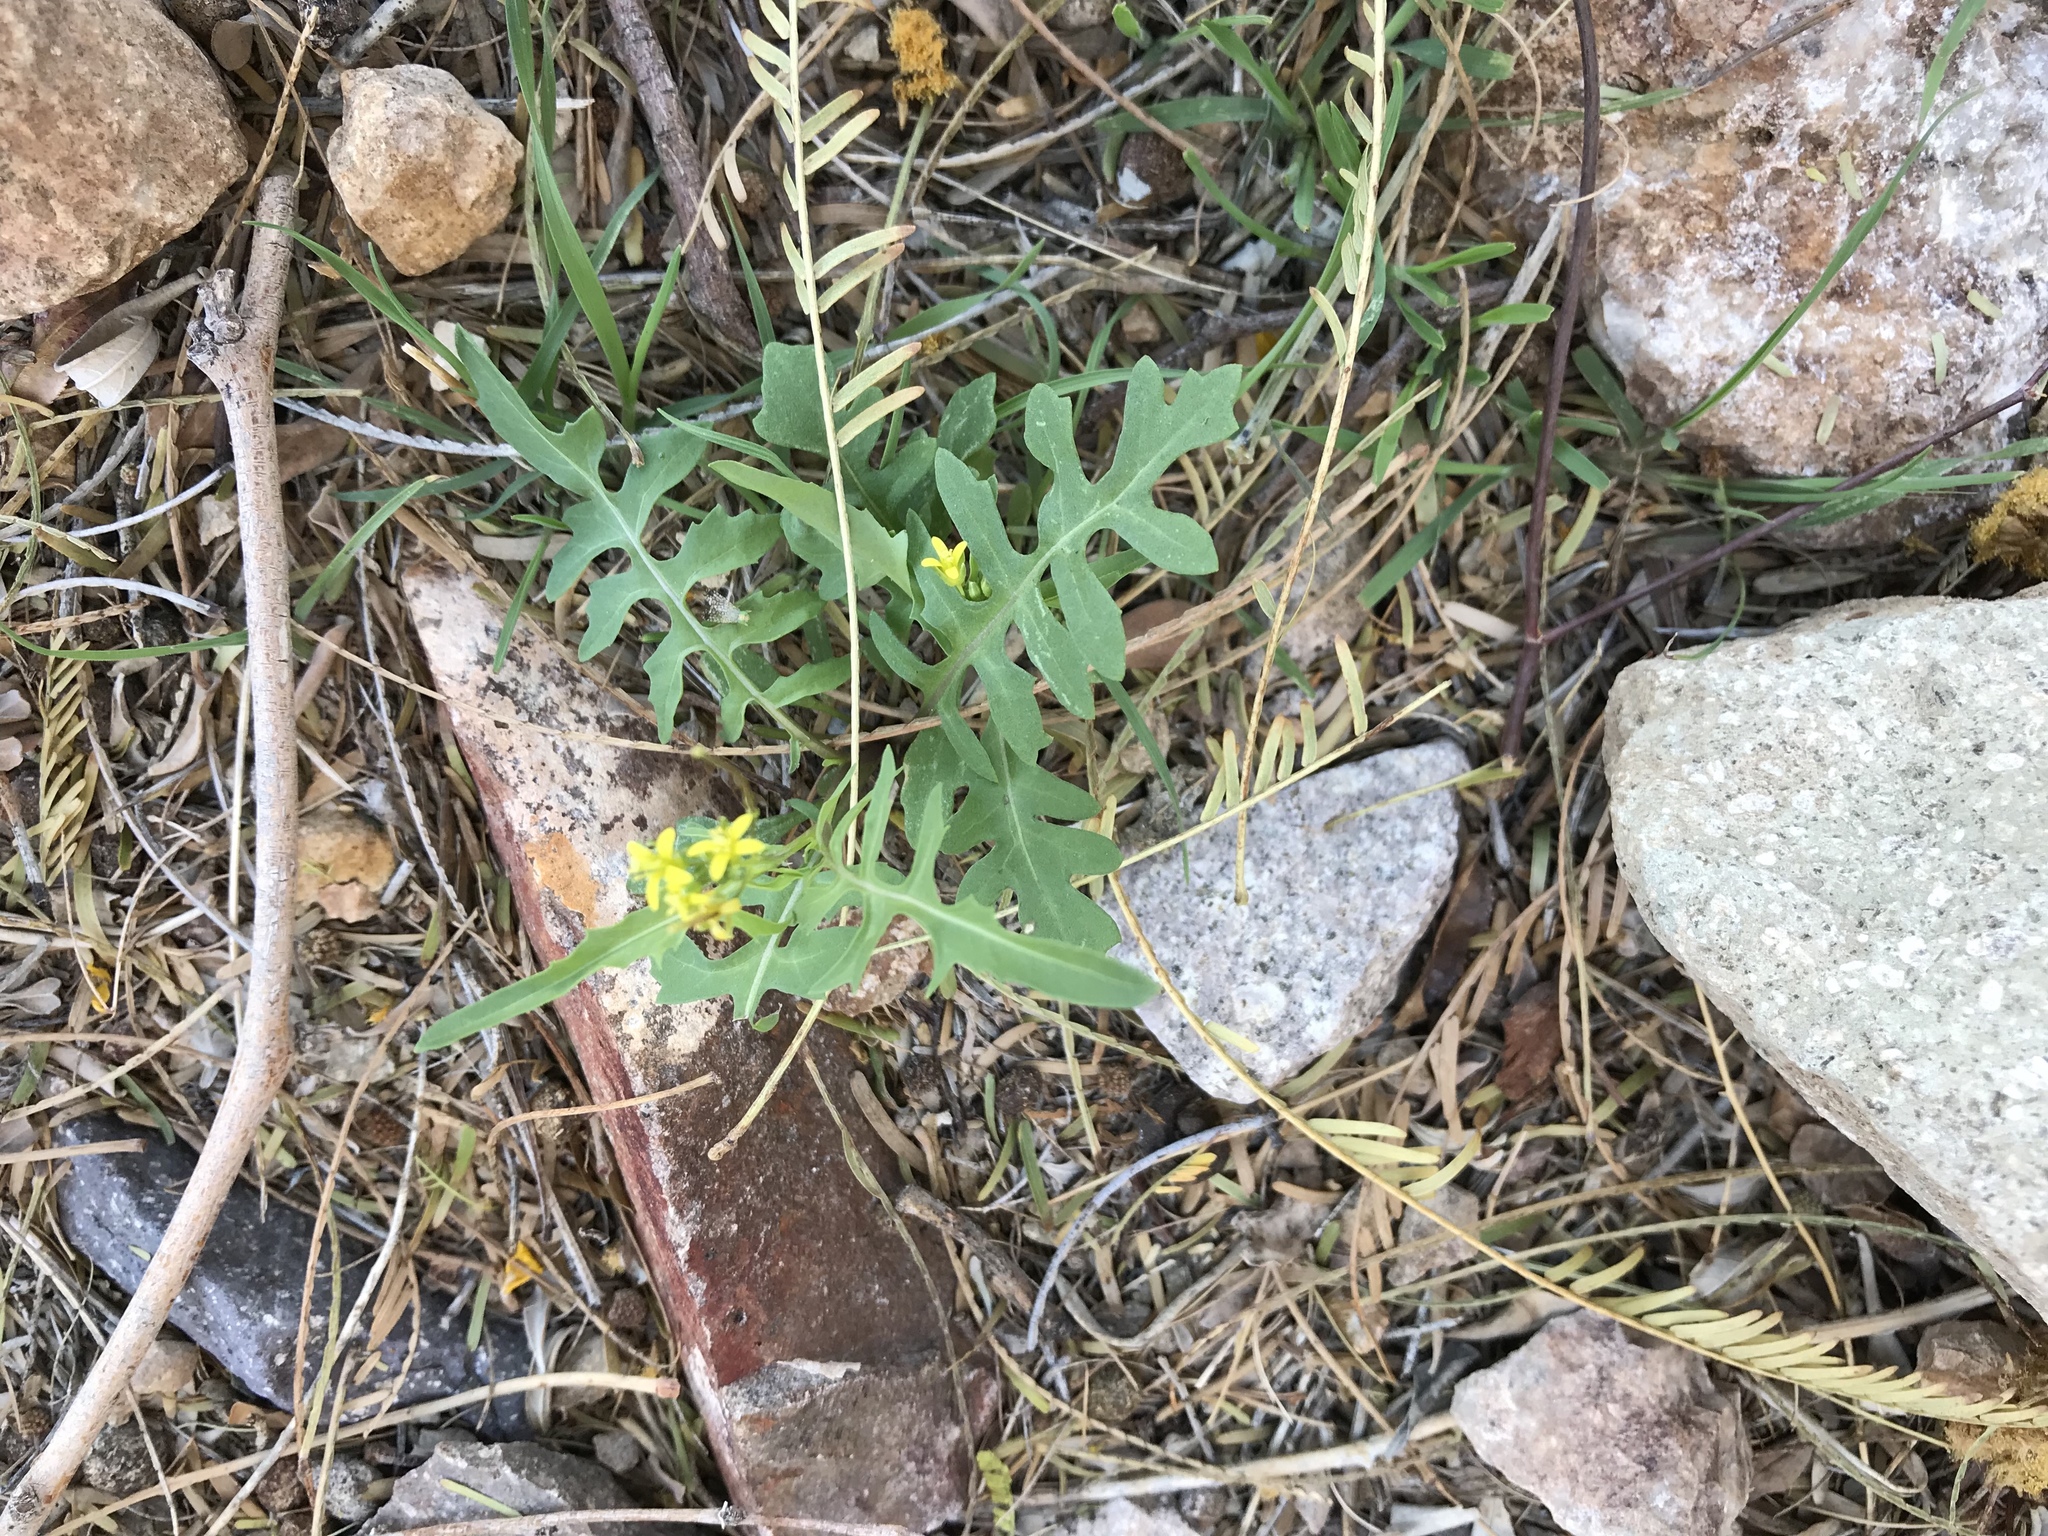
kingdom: Plantae
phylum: Tracheophyta
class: Magnoliopsida
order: Brassicales
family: Brassicaceae
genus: Sisymbrium
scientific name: Sisymbrium irio
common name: London rocket
